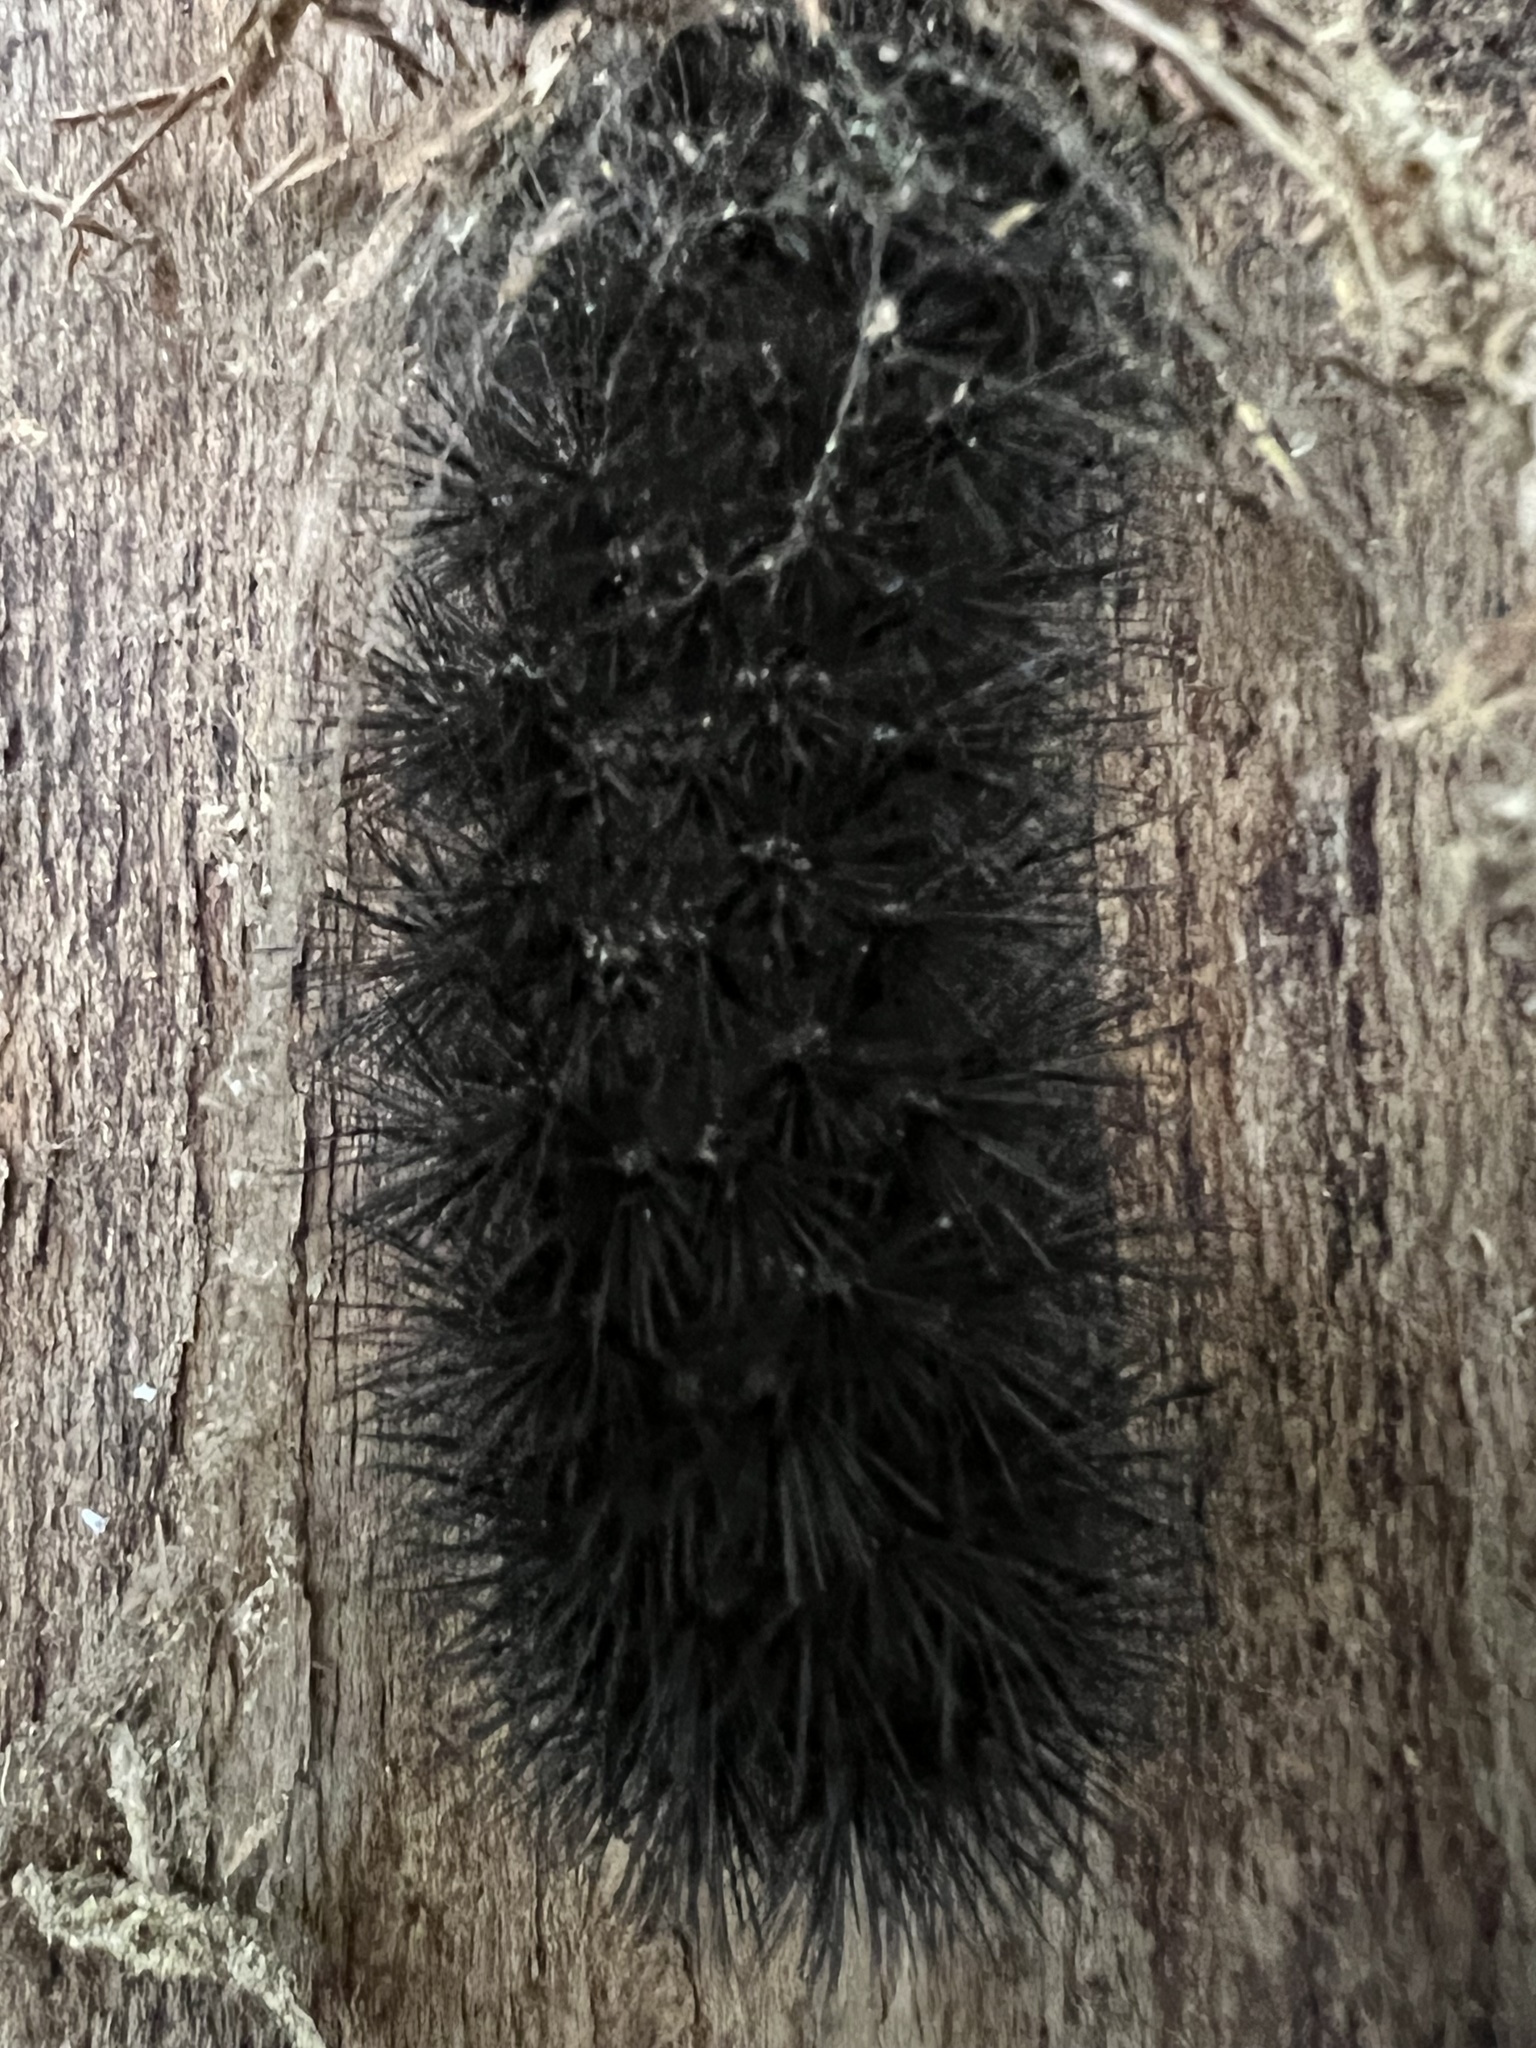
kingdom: Animalia
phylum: Arthropoda
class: Insecta
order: Lepidoptera
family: Erebidae
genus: Hypercompe
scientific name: Hypercompe scribonia
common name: Giant leopard moth
